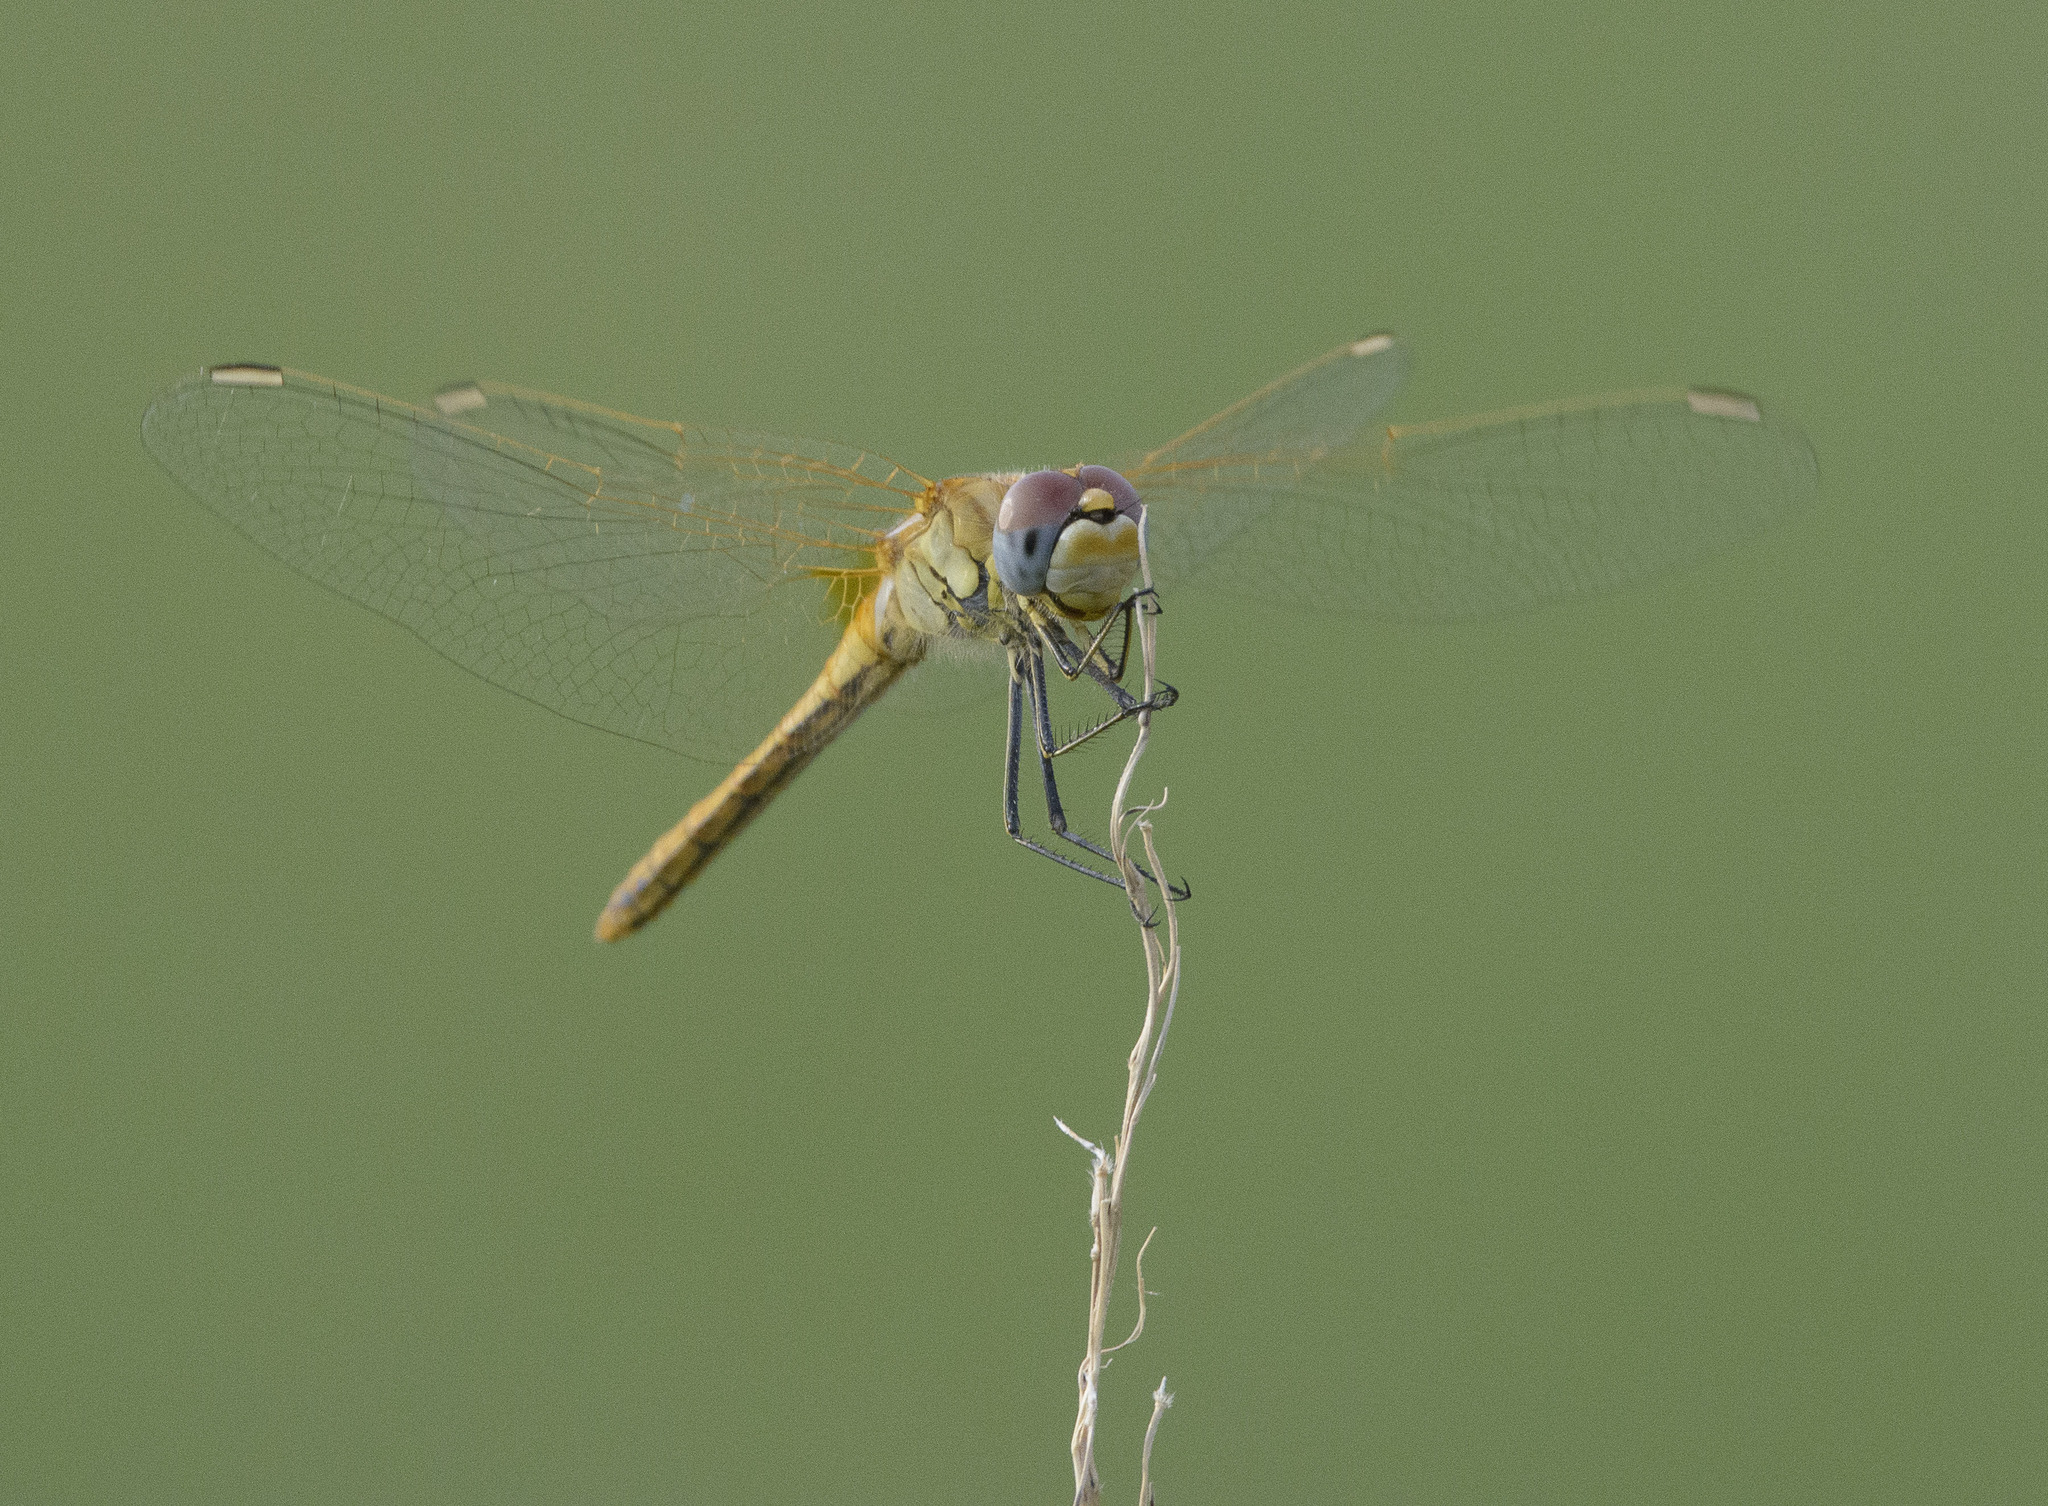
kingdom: Animalia
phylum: Arthropoda
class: Insecta
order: Odonata
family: Libellulidae
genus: Sympetrum
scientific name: Sympetrum fonscolombii
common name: Red-veined darter
